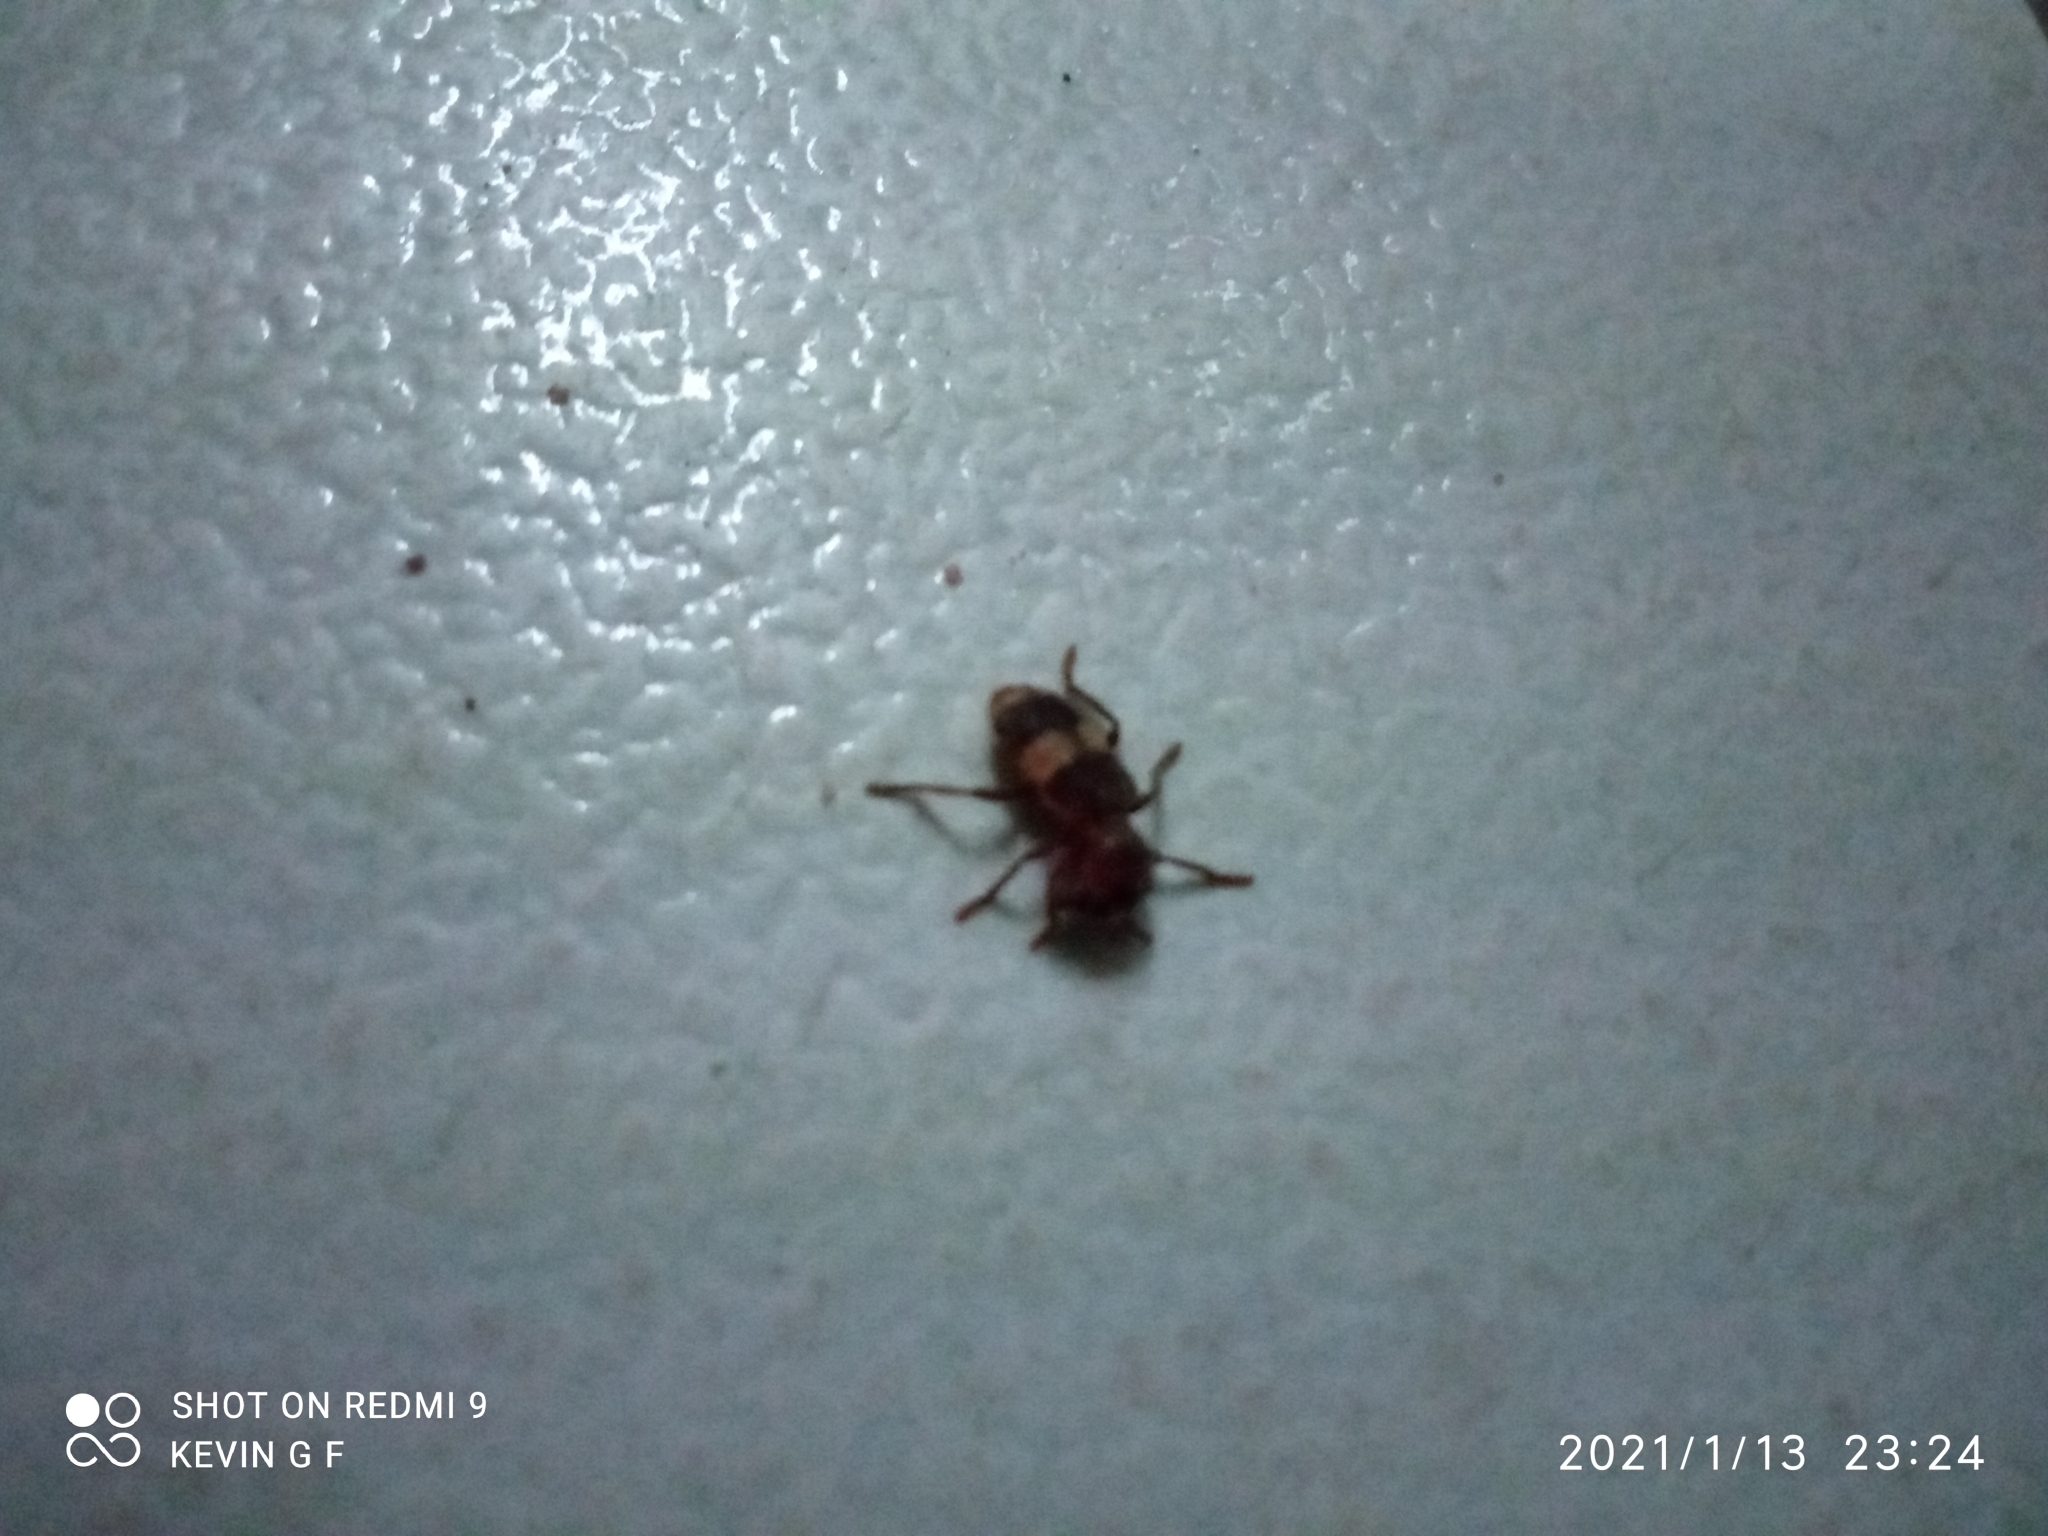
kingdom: Animalia
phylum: Arthropoda
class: Insecta
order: Coleoptera
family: Cleridae
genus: Enoclerus
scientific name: Enoclerus quadrisignatus
